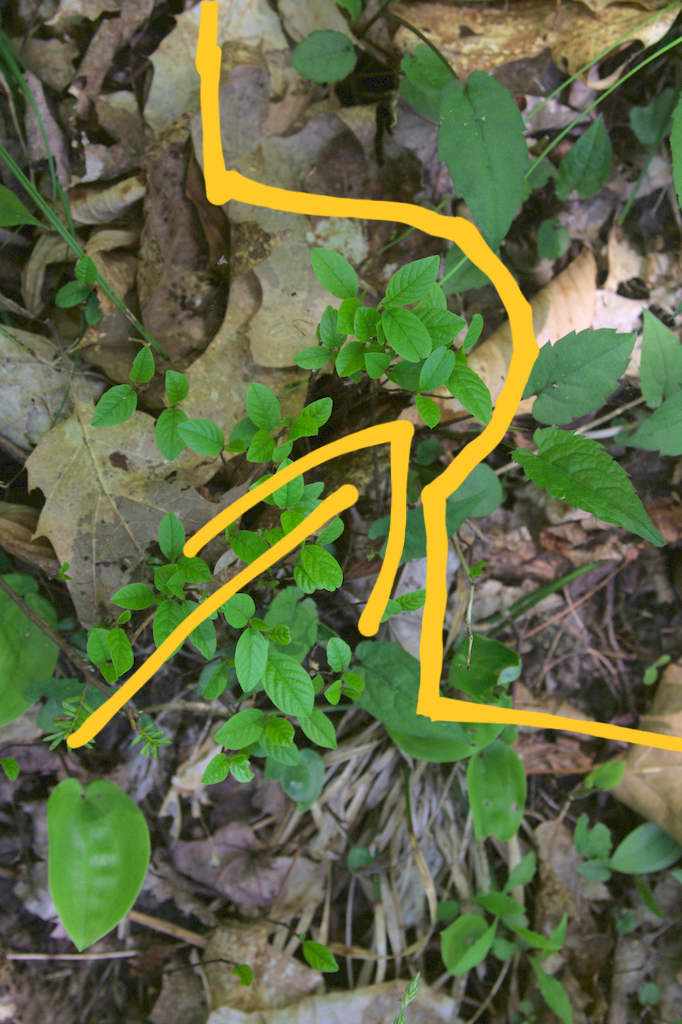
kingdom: Plantae
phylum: Tracheophyta
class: Magnoliopsida
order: Asterales
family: Asteraceae
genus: Eurybia
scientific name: Eurybia divaricata
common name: White wood aster
